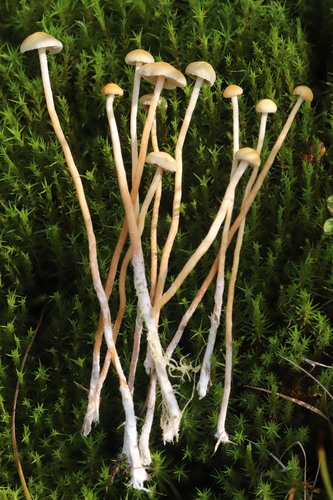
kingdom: Fungi
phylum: Basidiomycota
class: Agaricomycetes
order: Agaricales
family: Strophariaceae
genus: Hypholoma
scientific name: Hypholoma elongatum
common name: Sphagnum brownie
